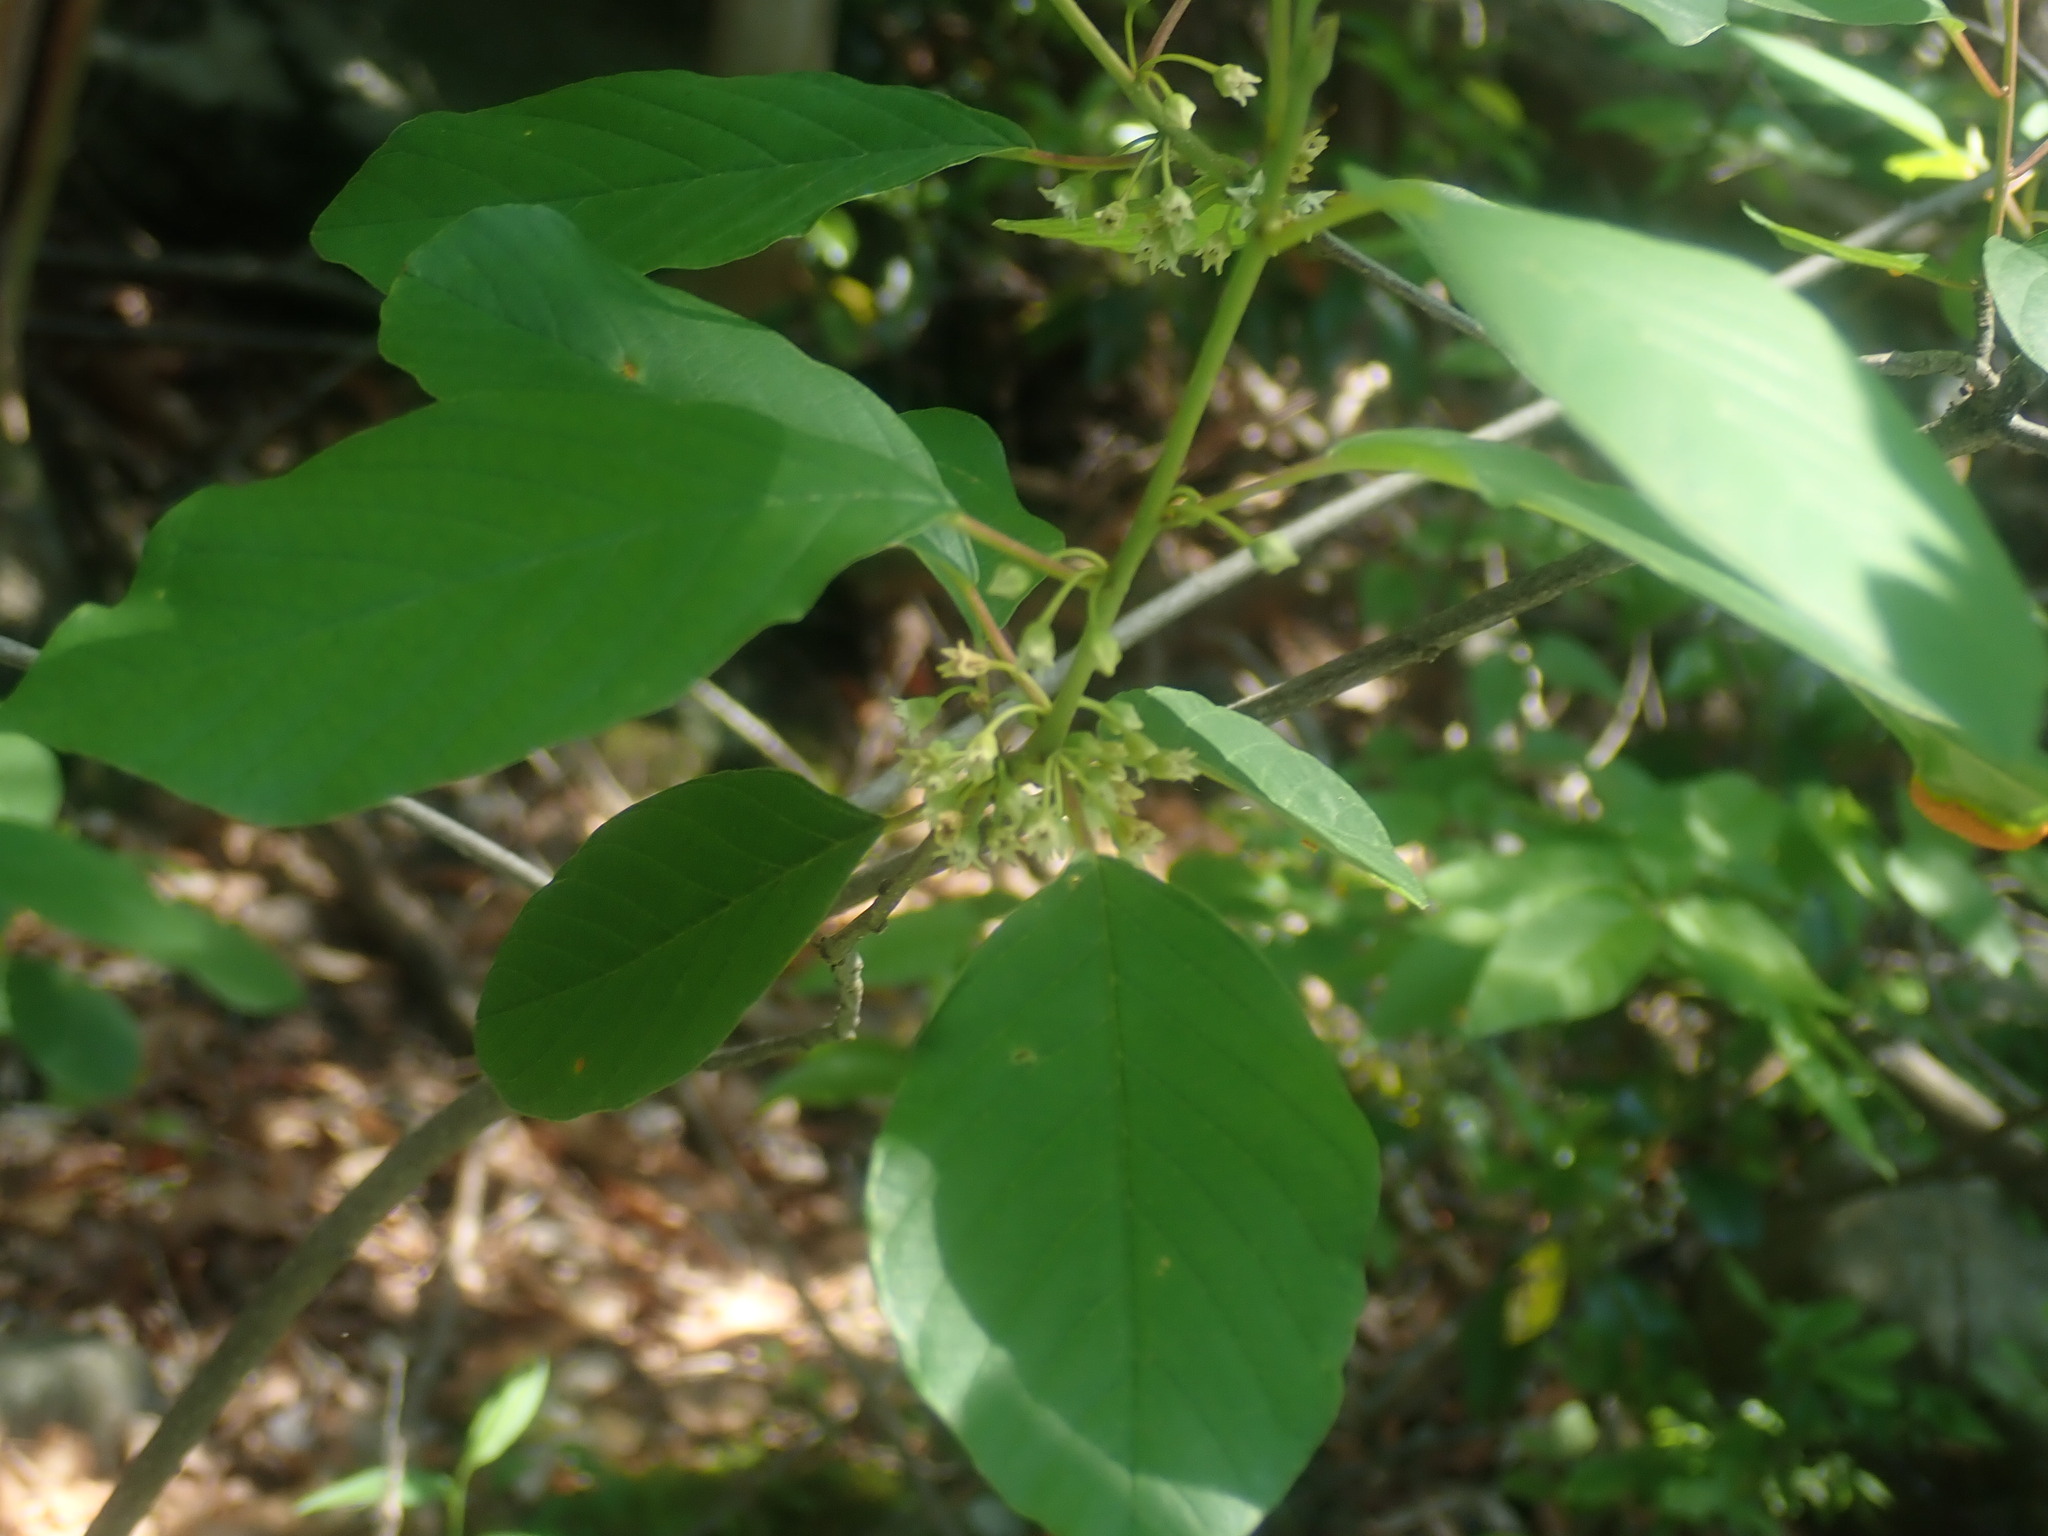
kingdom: Plantae
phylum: Tracheophyta
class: Magnoliopsida
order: Rosales
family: Rhamnaceae
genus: Frangula
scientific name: Frangula alnus
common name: Alder buckthorn
